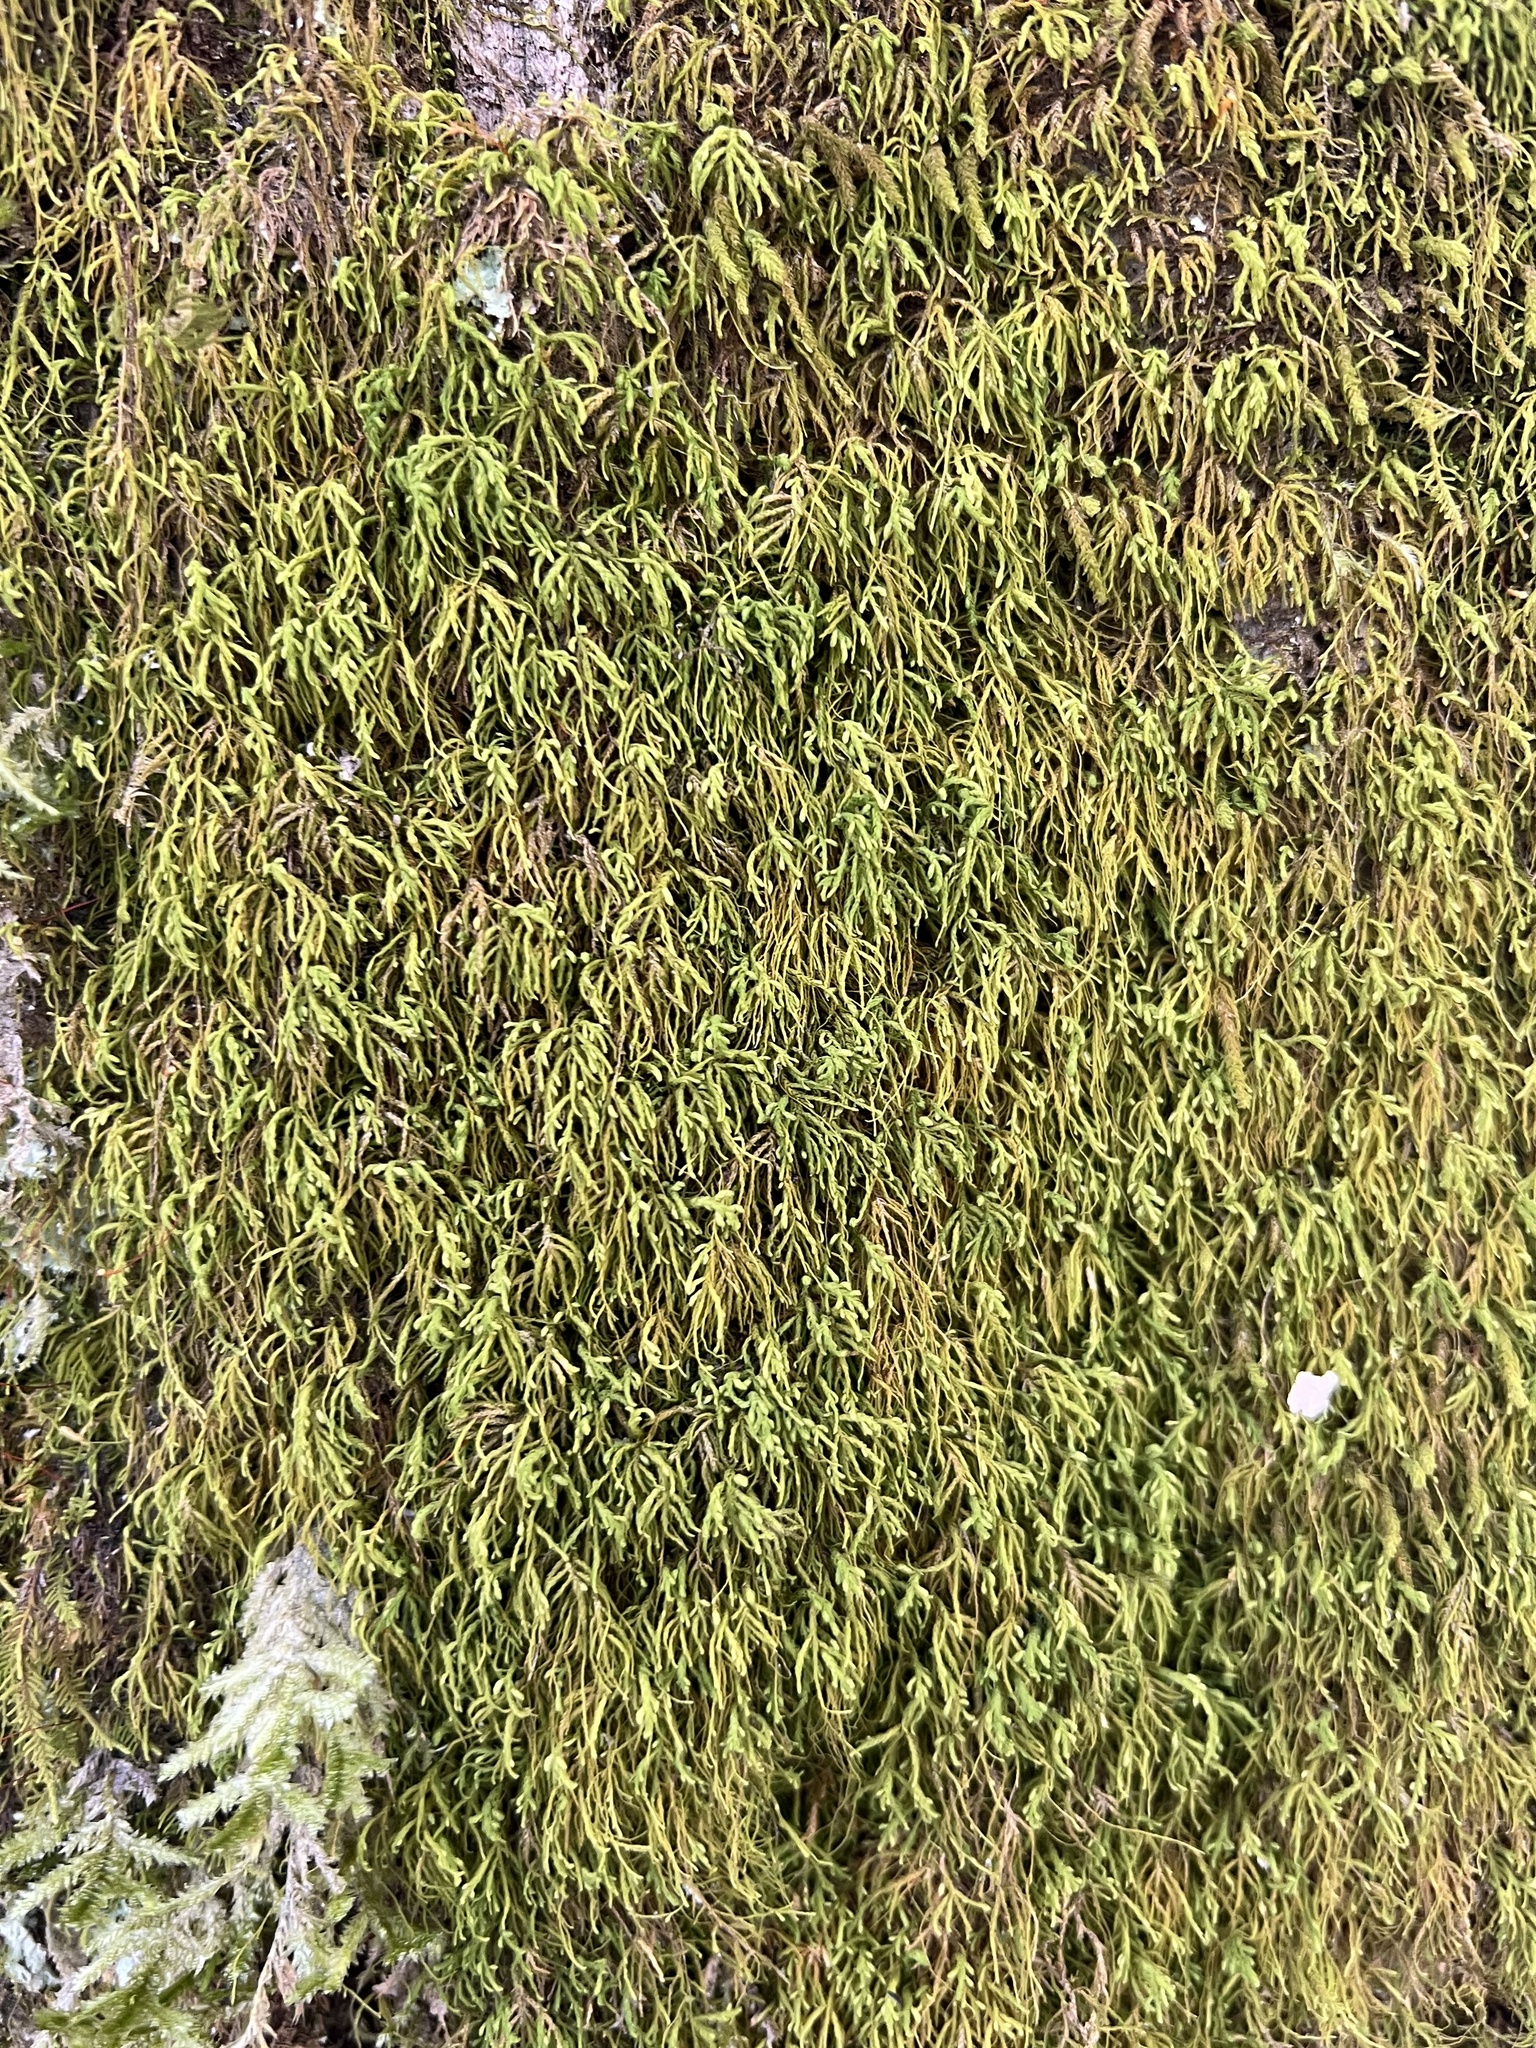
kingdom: Plantae
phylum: Bryophyta
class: Bryopsida
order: Hypnales
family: Neckeraceae
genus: Pseudanomodon
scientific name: Pseudanomodon attenuatus
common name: Tree-skirt moss
